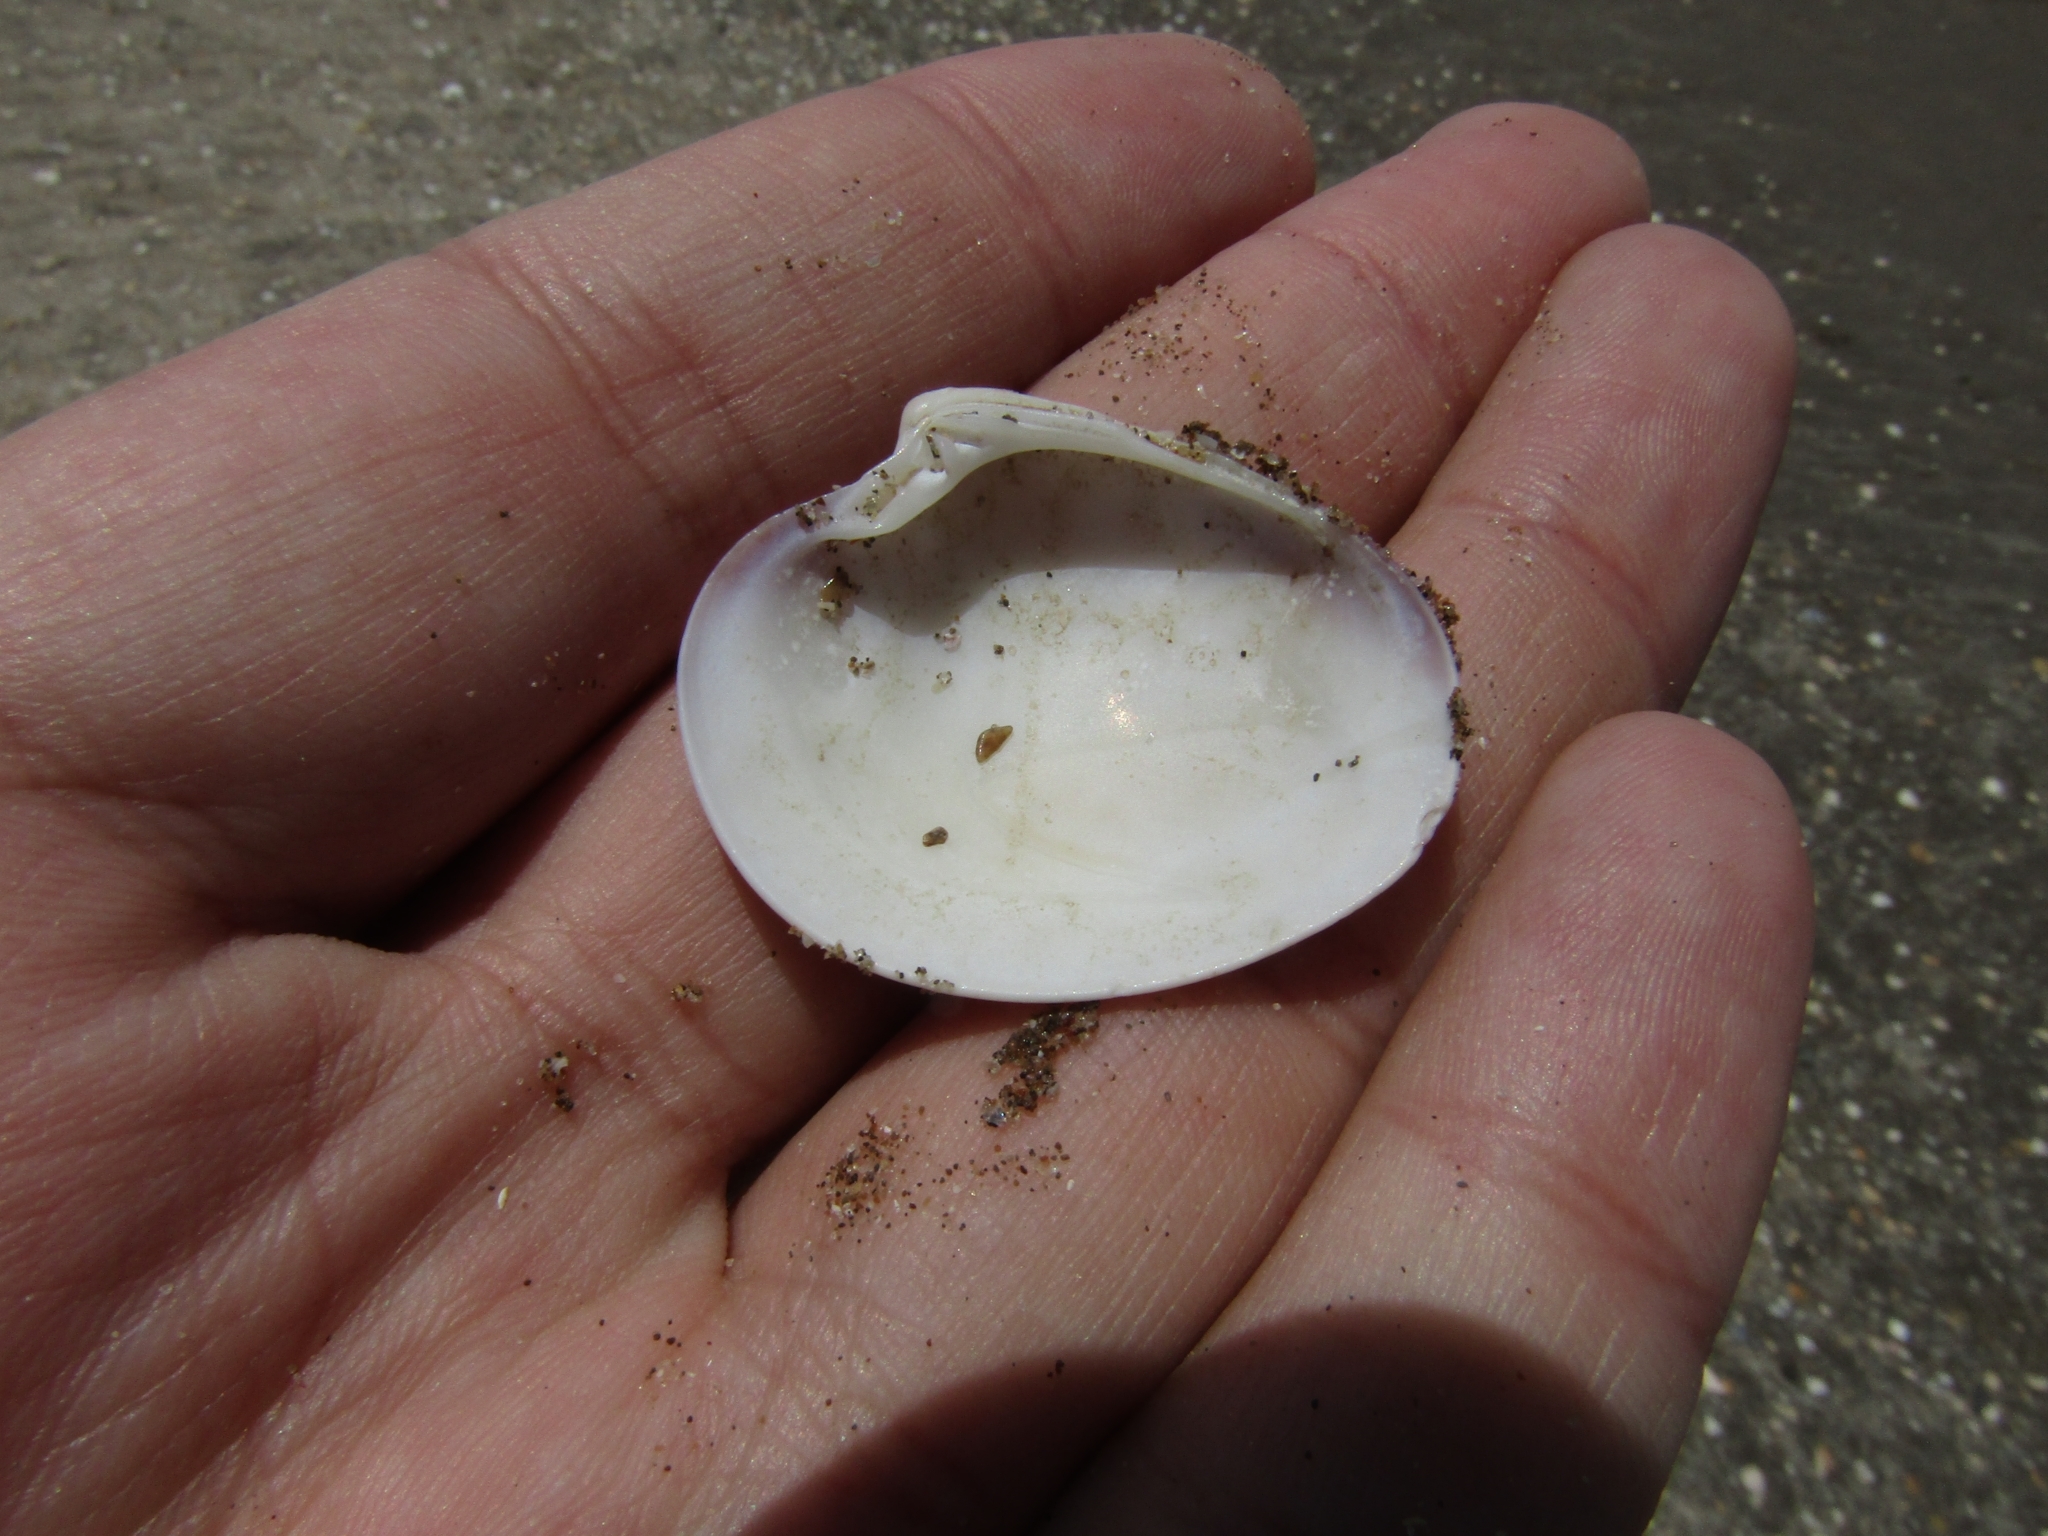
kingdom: Animalia
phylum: Mollusca
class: Bivalvia
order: Venerida
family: Veneridae
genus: Eucallista
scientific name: Eucallista purpurata
